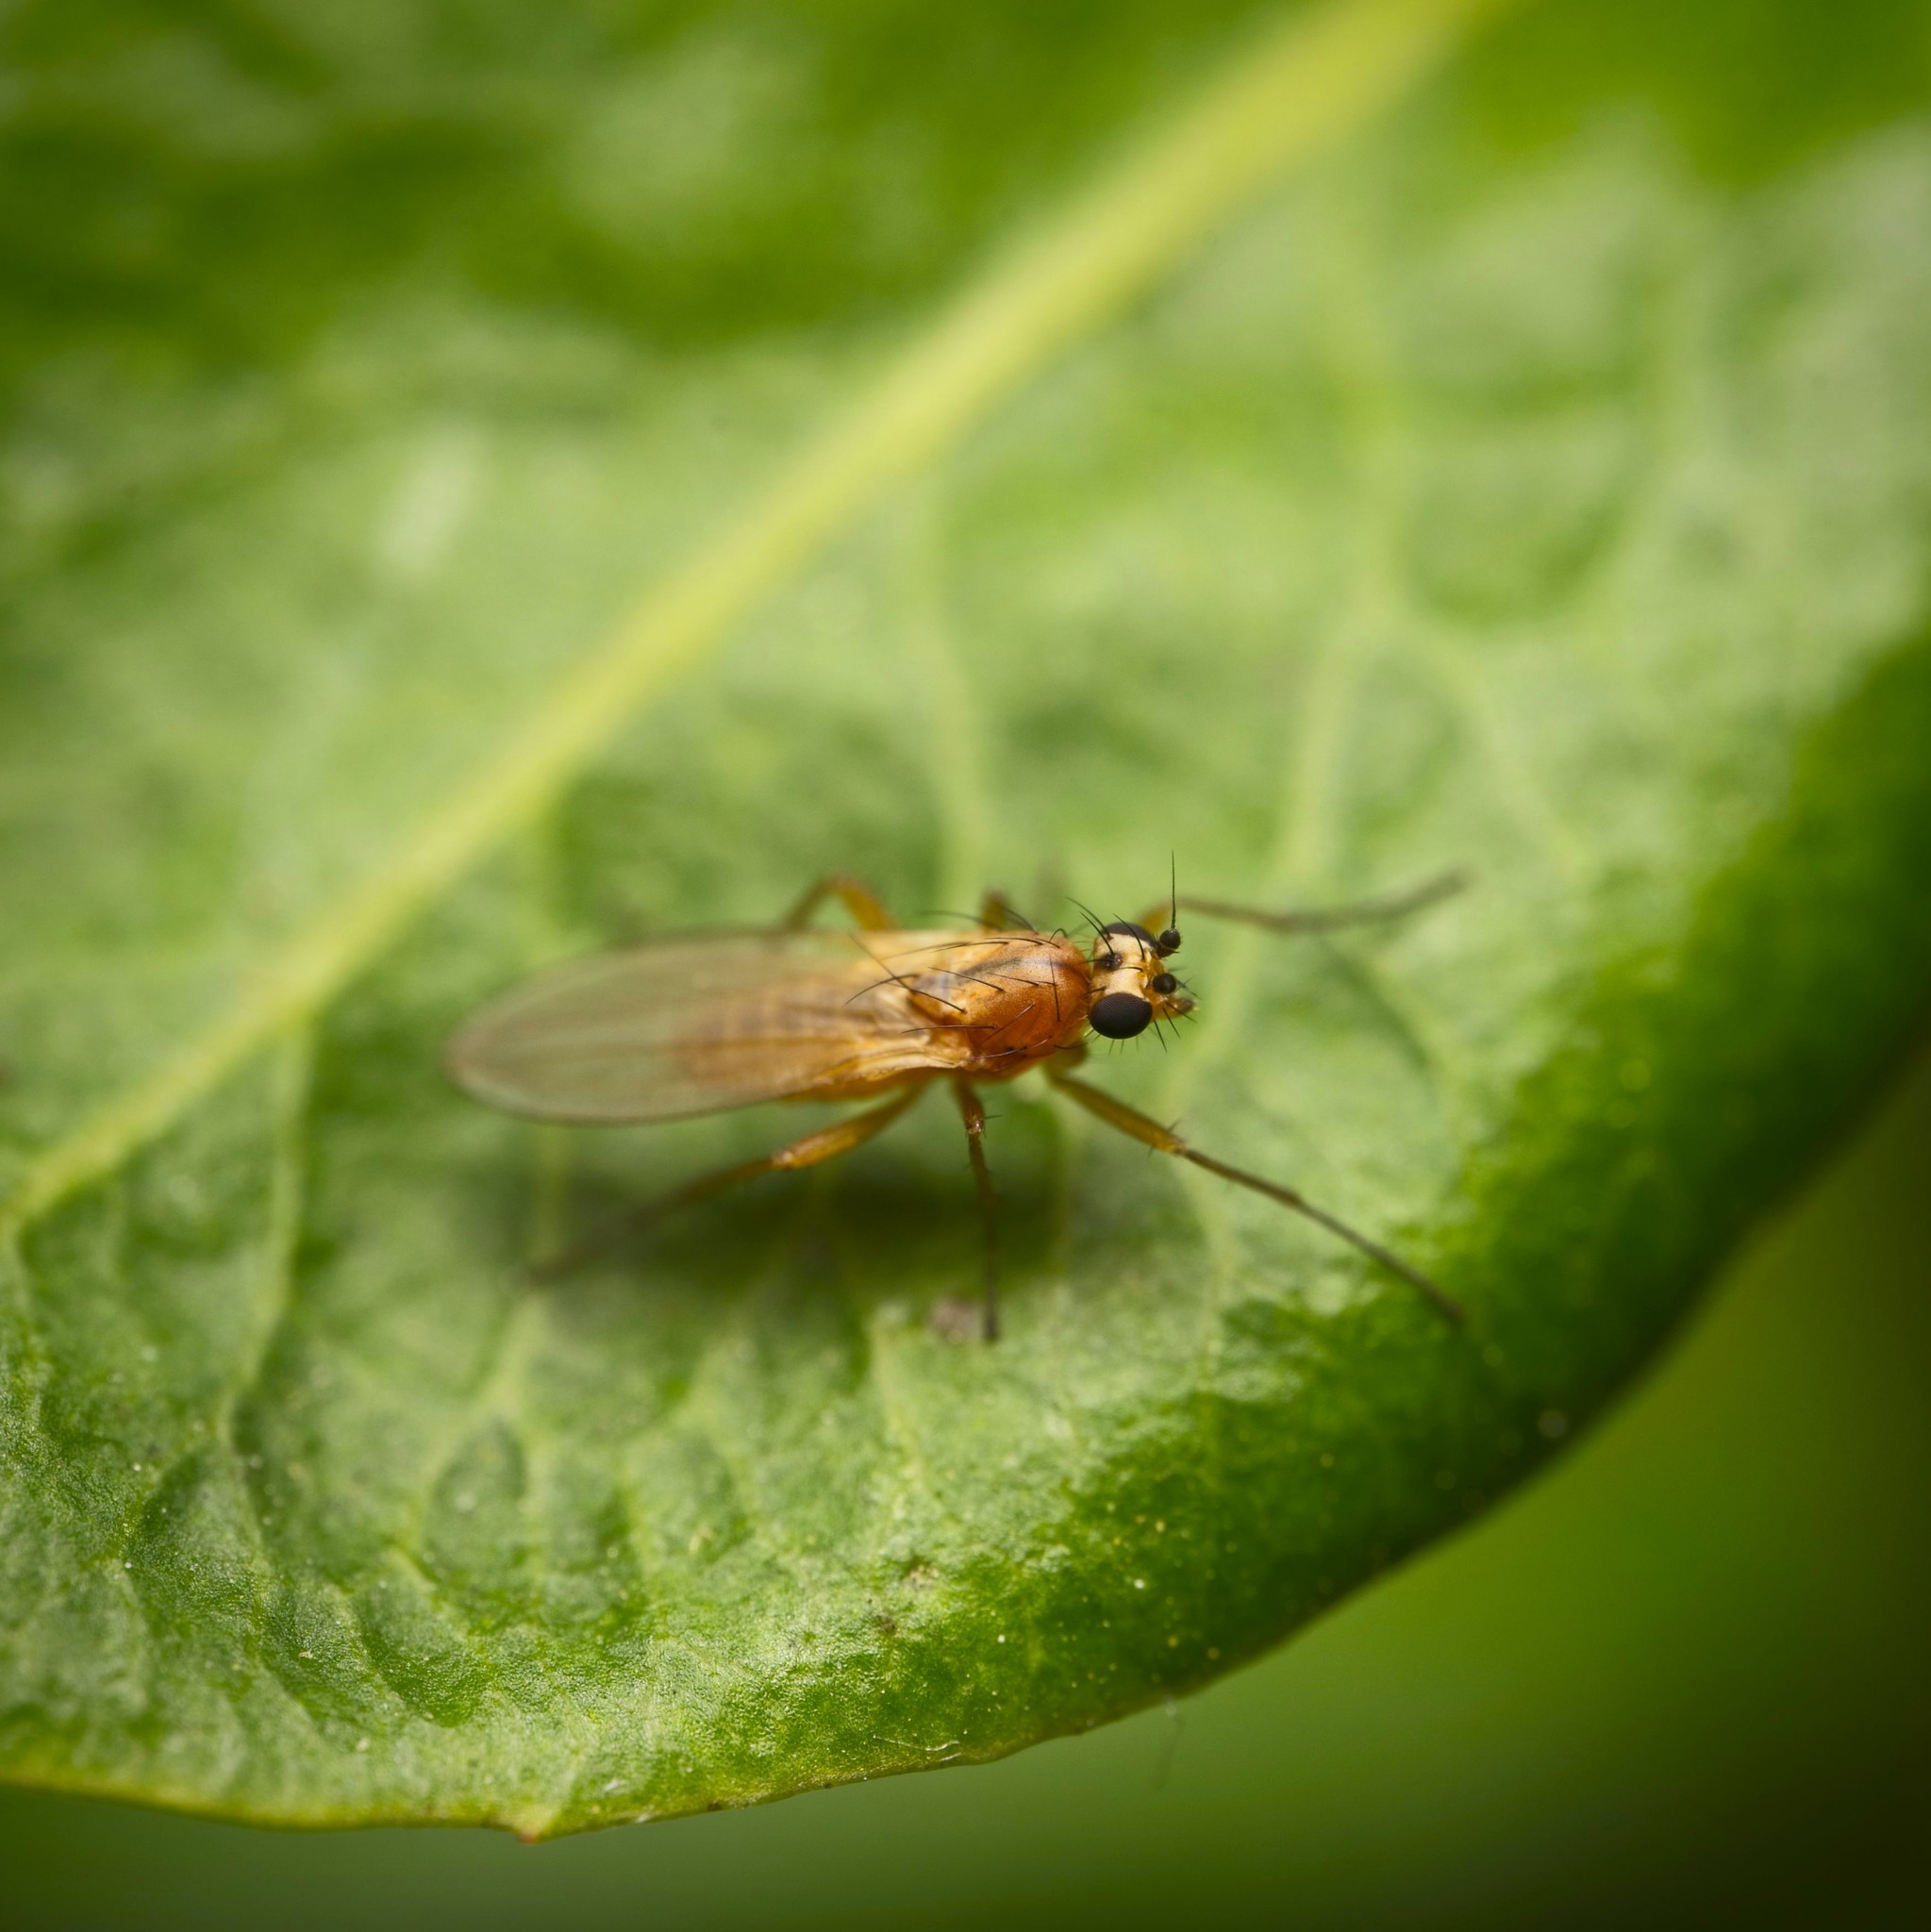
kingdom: Animalia
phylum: Arthropoda
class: Insecta
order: Diptera
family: Lonchopteridae
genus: Lonchoptera
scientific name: Lonchoptera bifurcata
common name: Spear-winged fly
